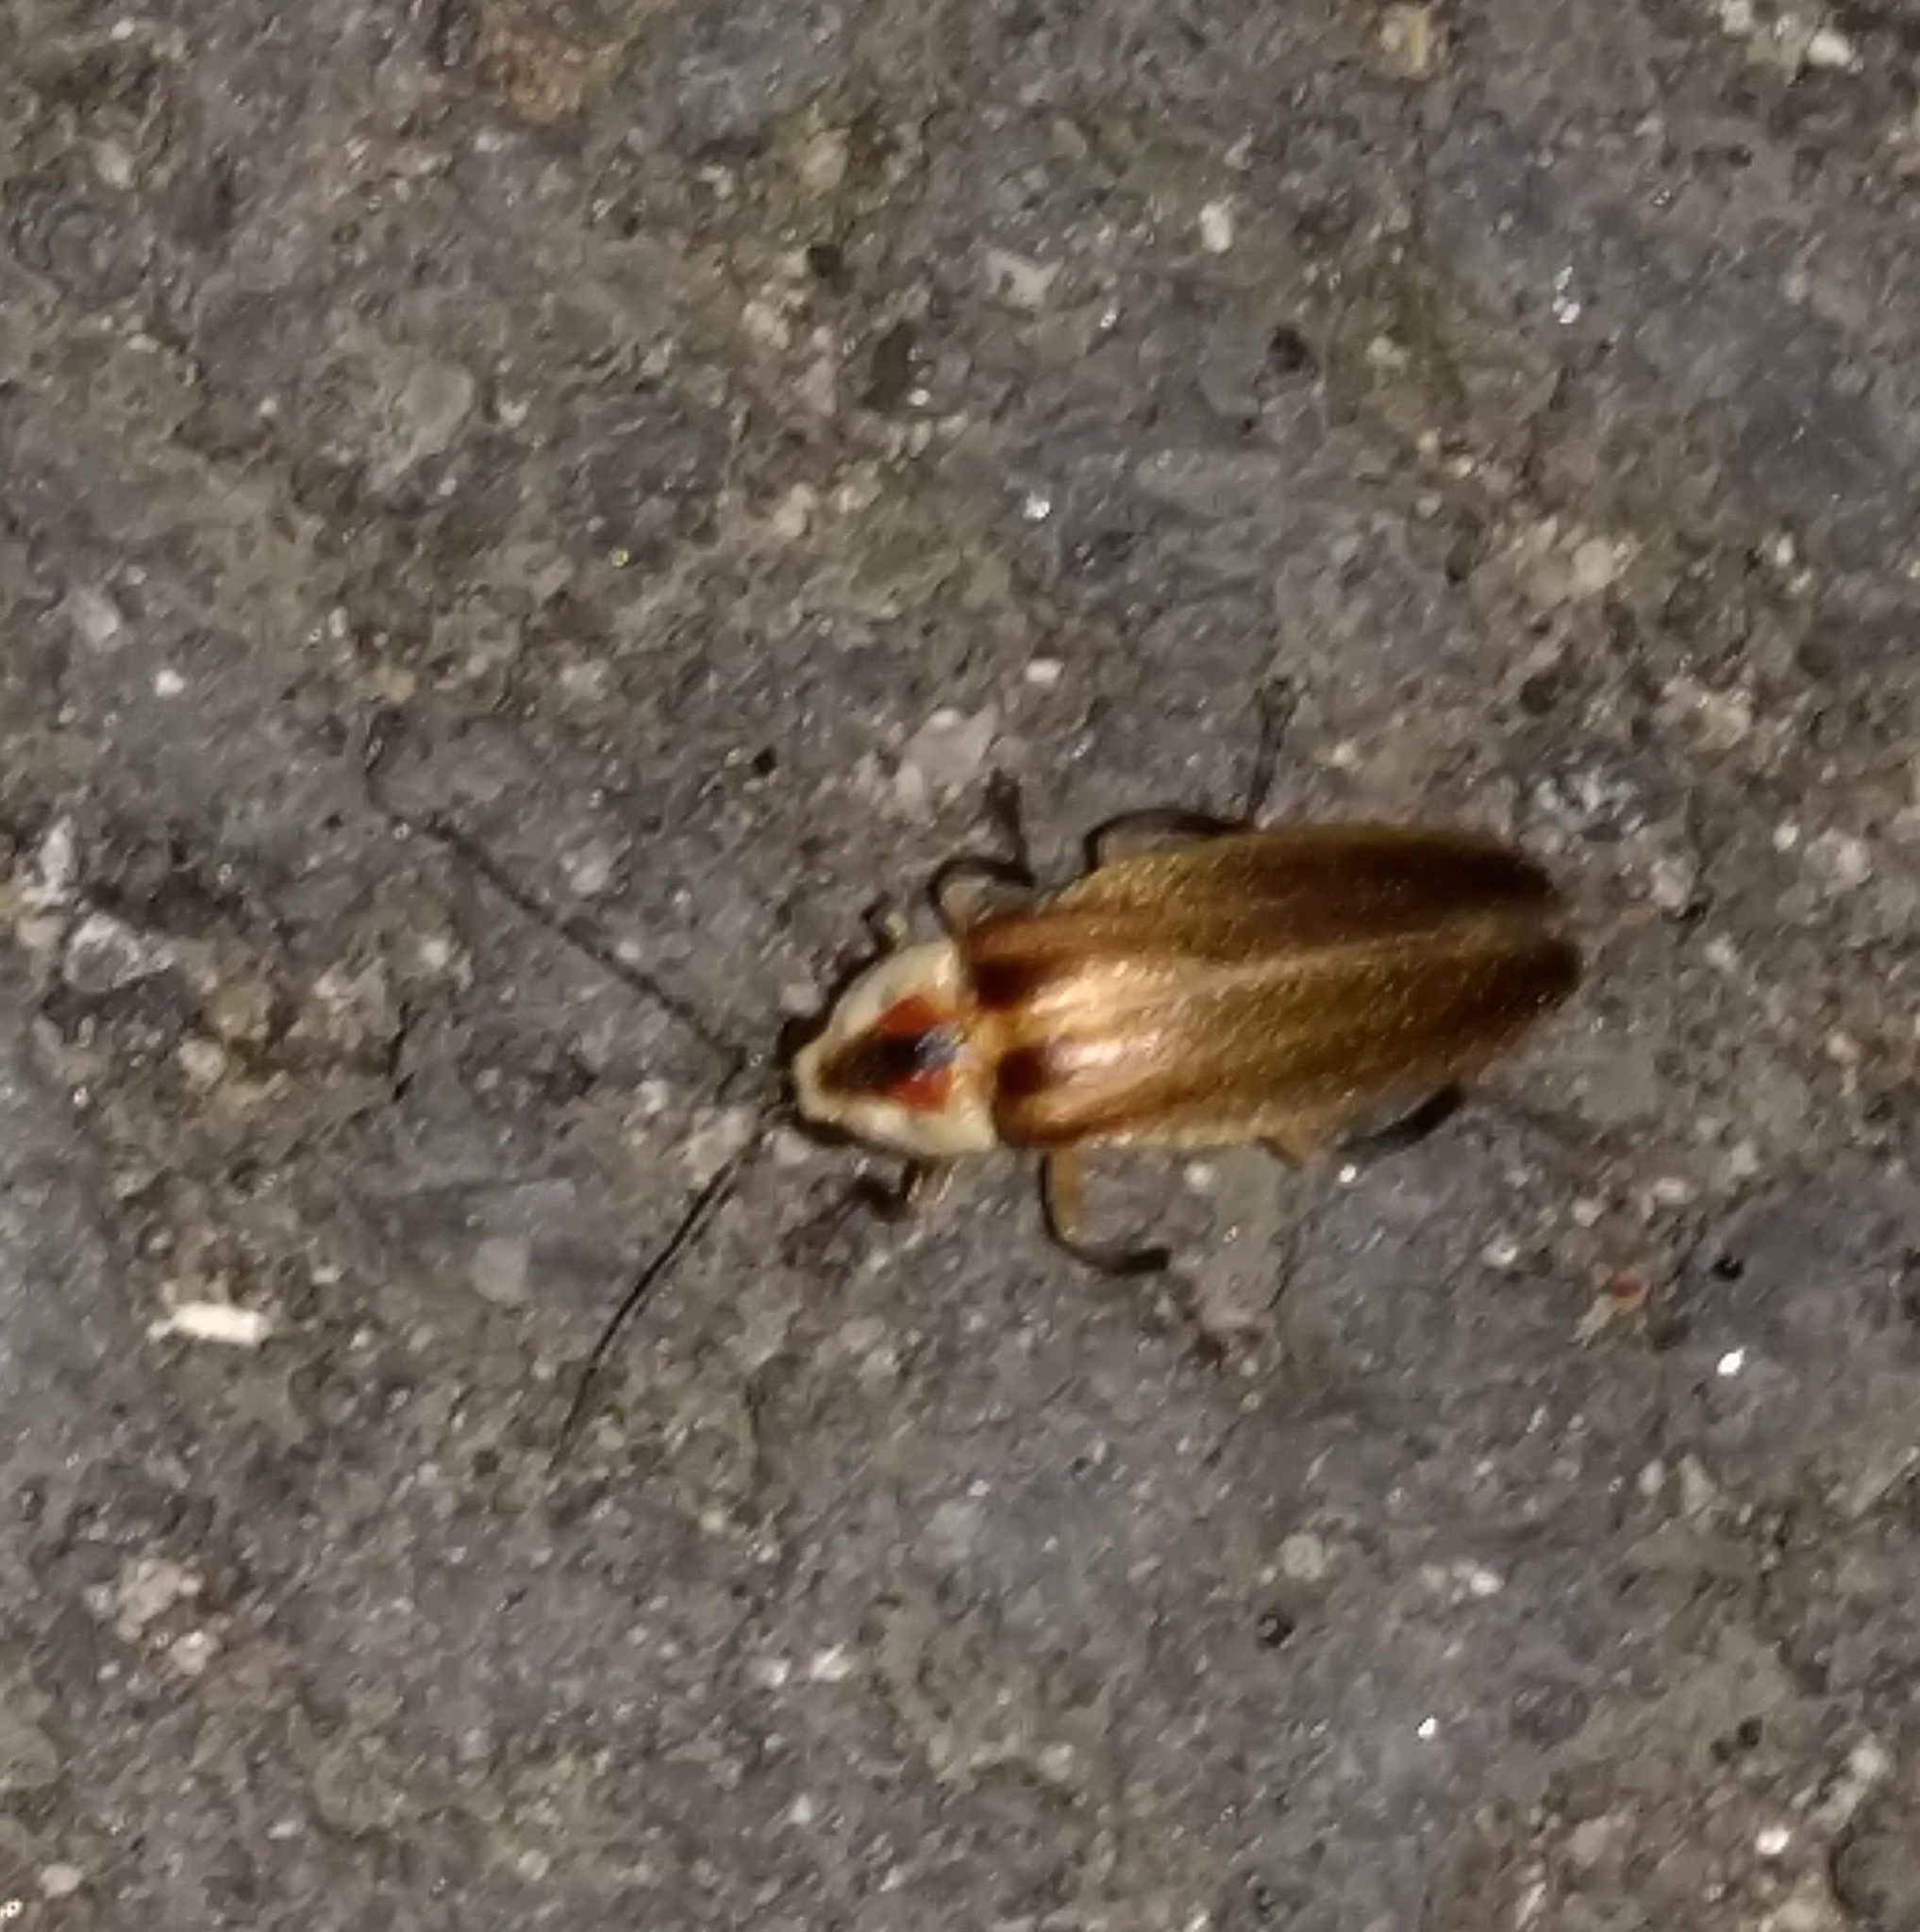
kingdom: Animalia
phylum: Arthropoda
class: Insecta
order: Coleoptera
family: Lampyridae
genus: Photuris
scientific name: Photuris
